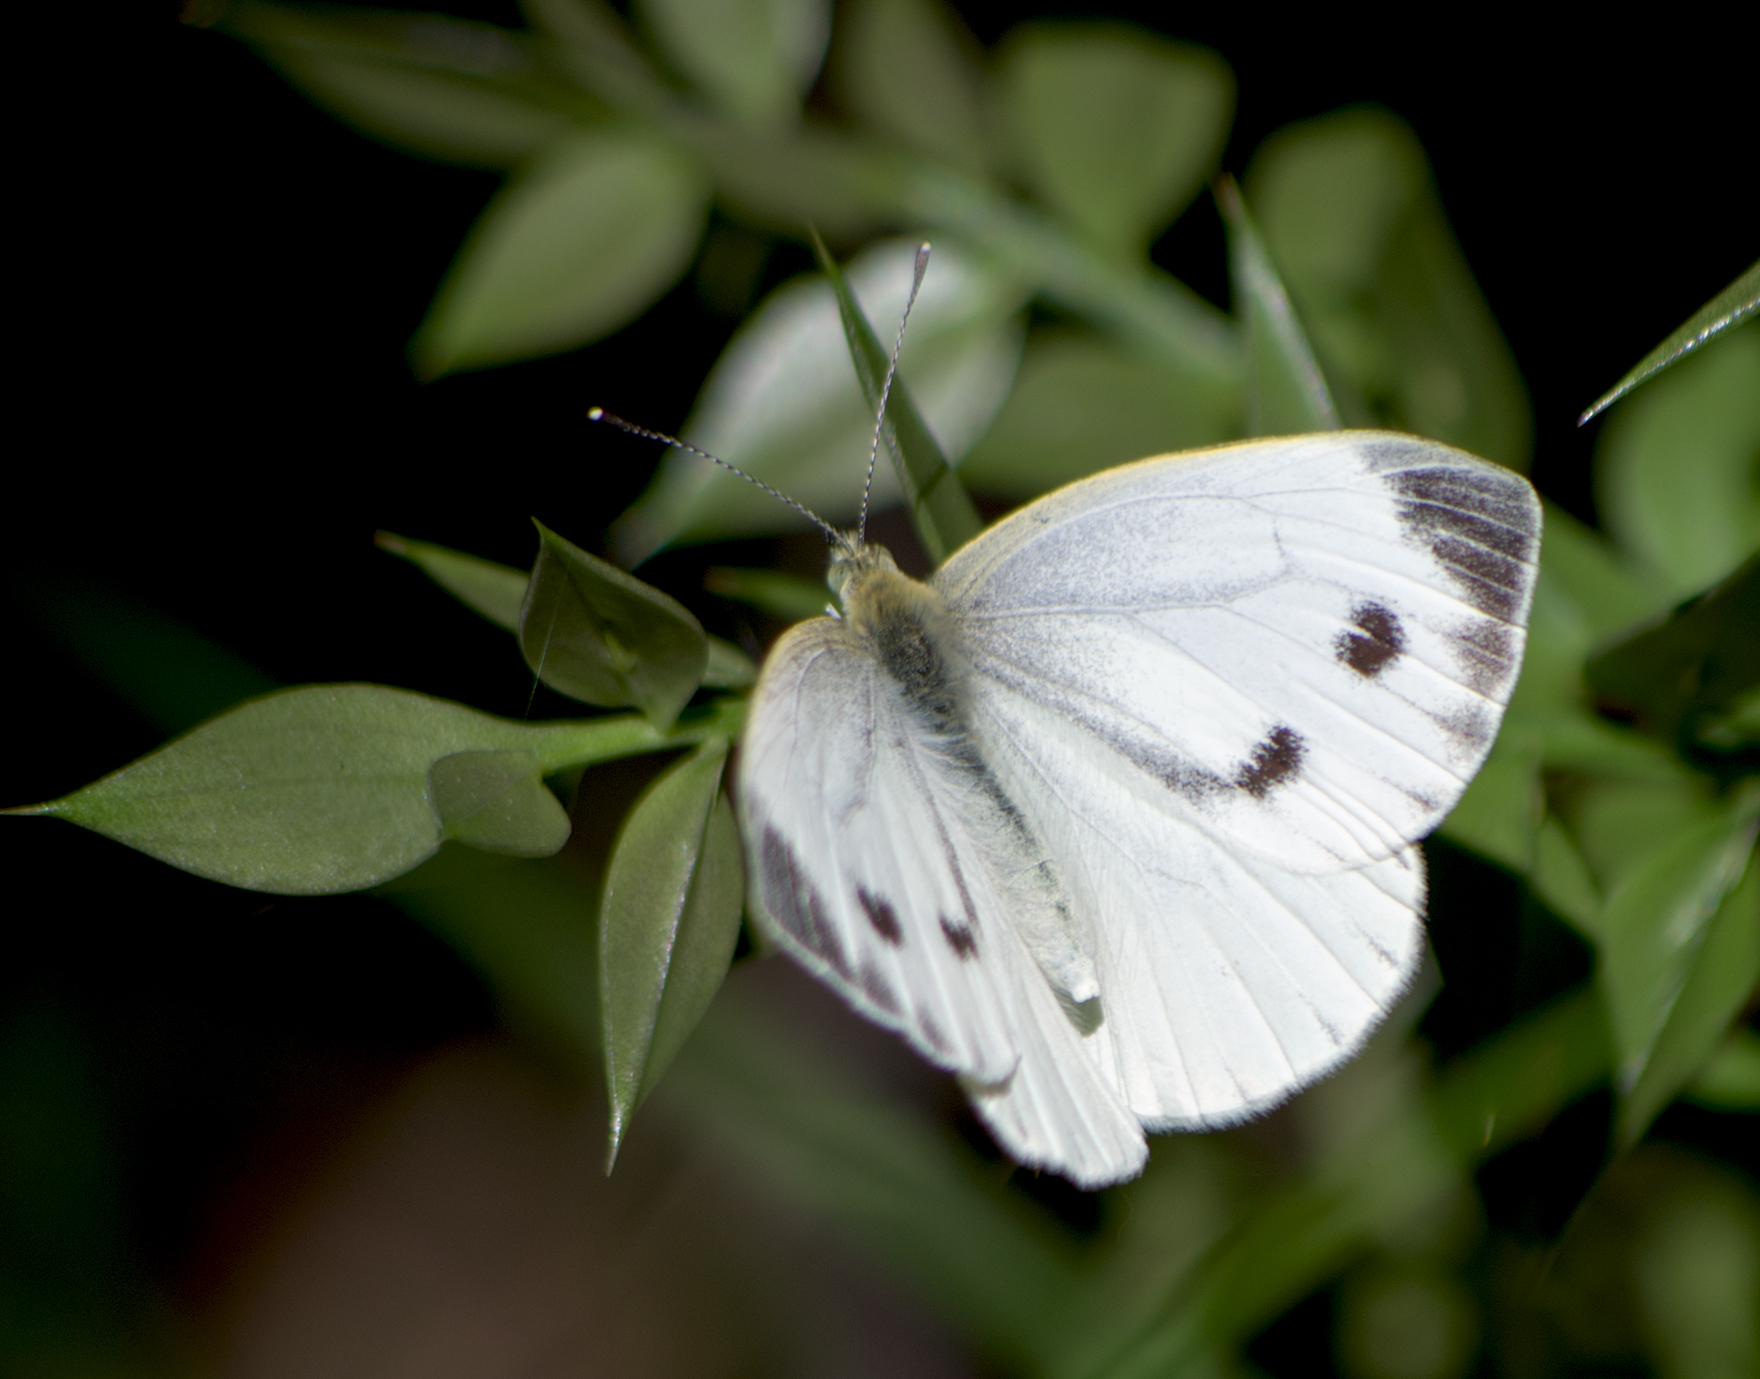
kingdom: Animalia
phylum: Arthropoda
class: Insecta
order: Lepidoptera
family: Pieridae
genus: Pieris
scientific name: Pieris napi
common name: Green-veined white
